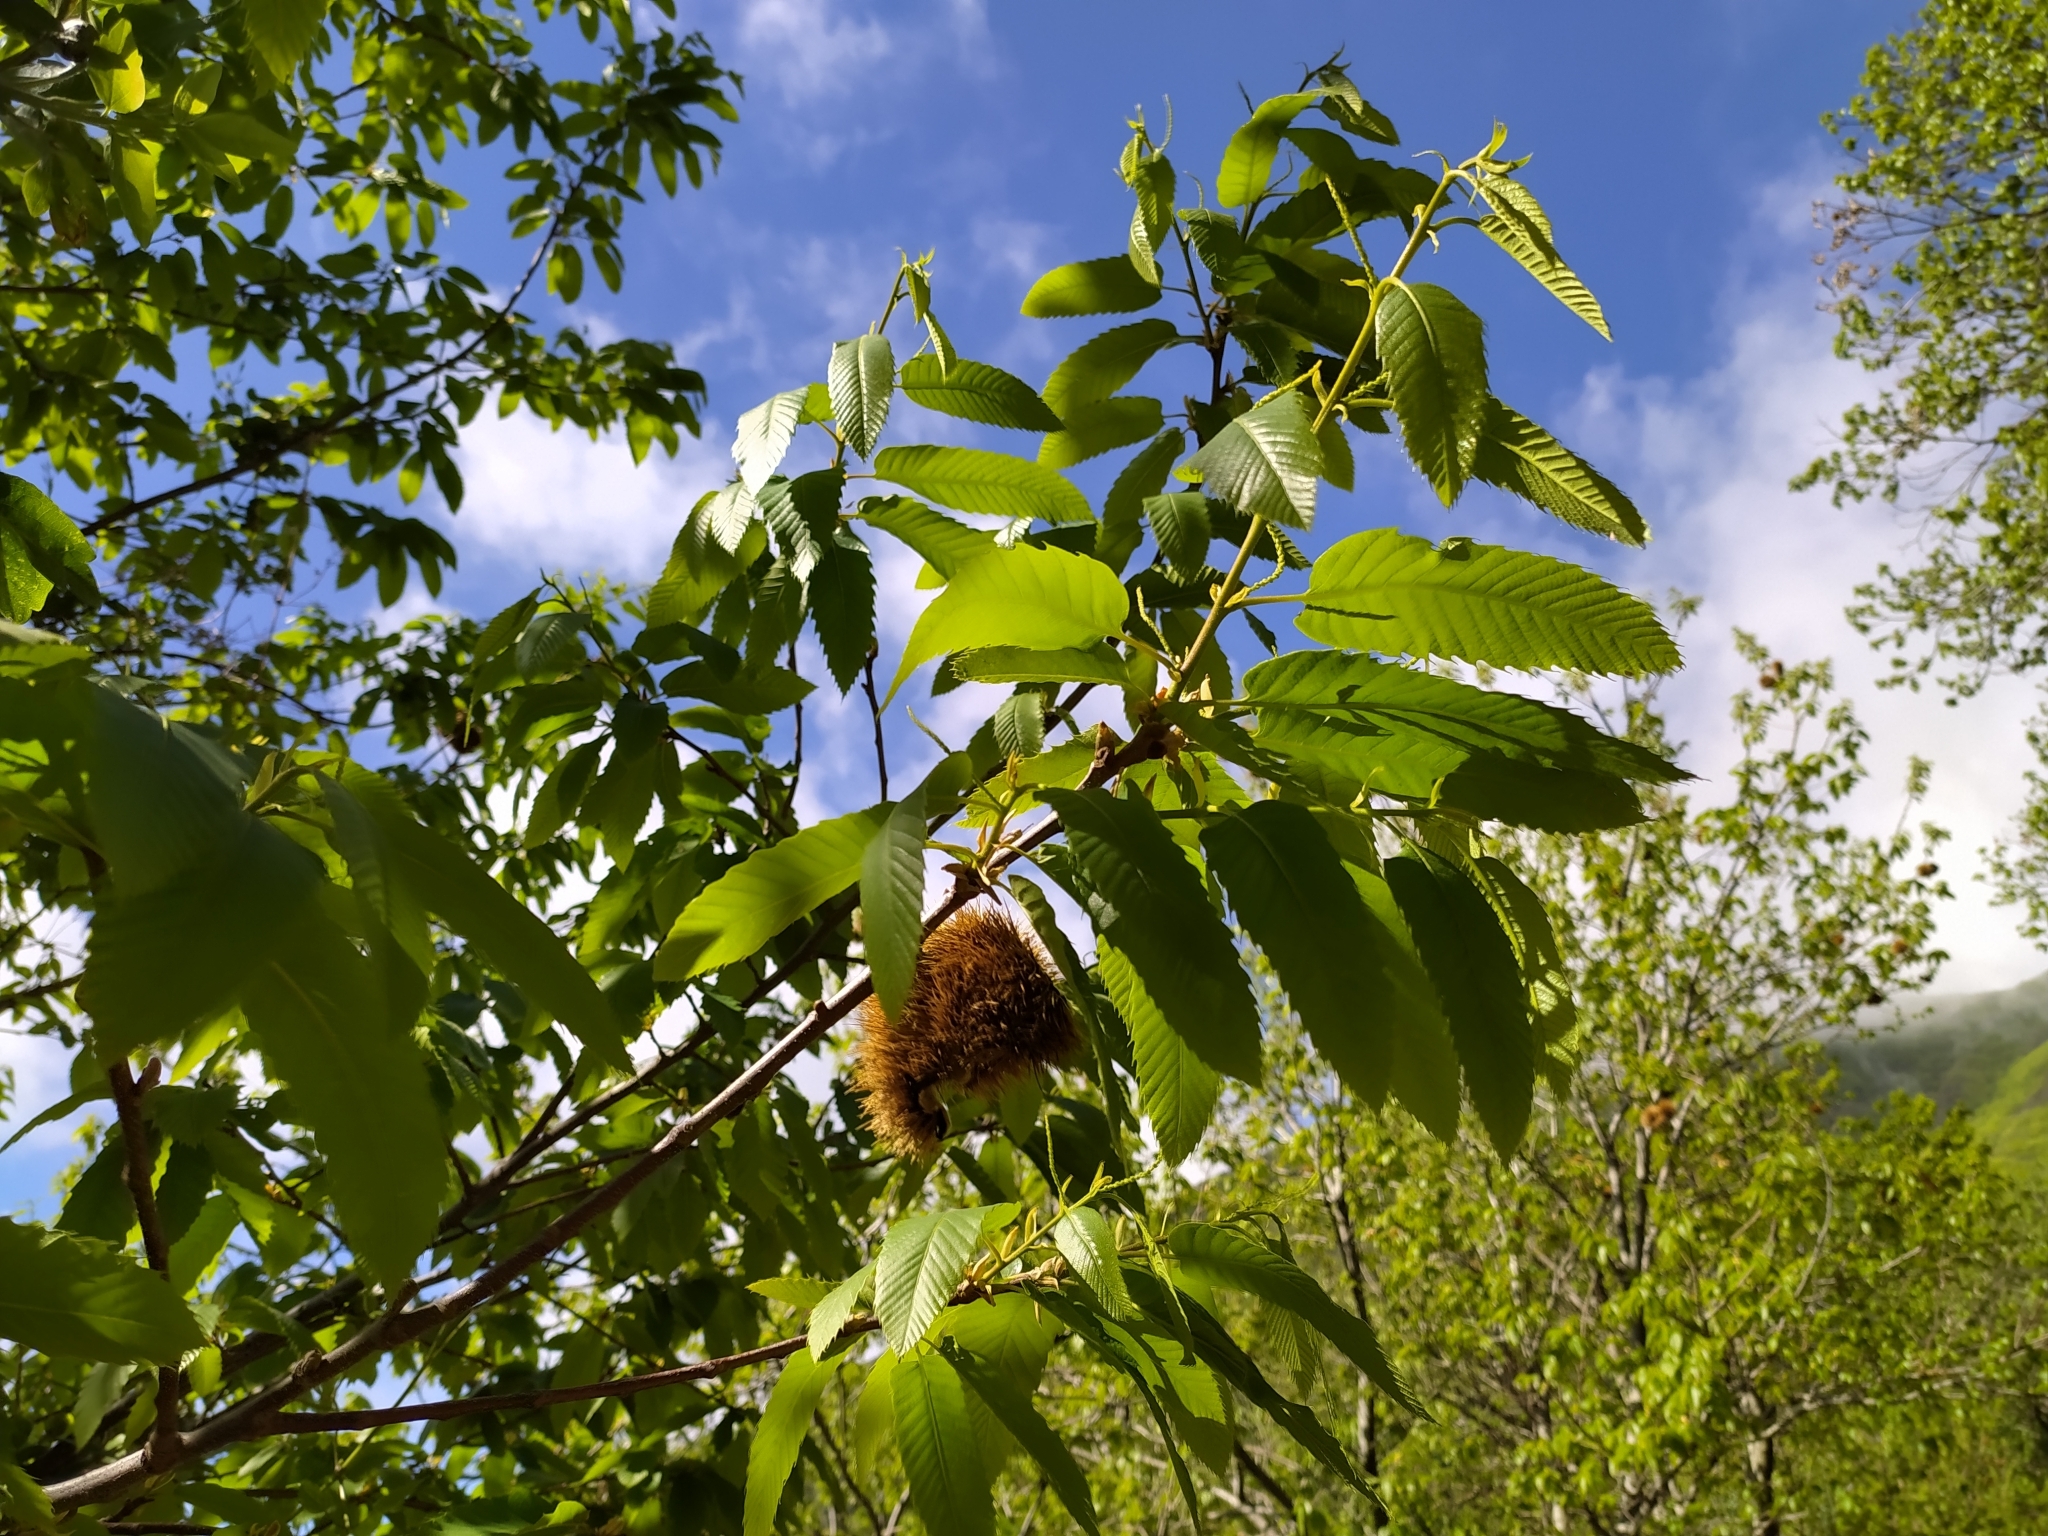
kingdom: Plantae
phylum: Tracheophyta
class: Magnoliopsida
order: Fagales
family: Fagaceae
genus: Castanea
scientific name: Castanea sativa
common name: Sweet chestnut
